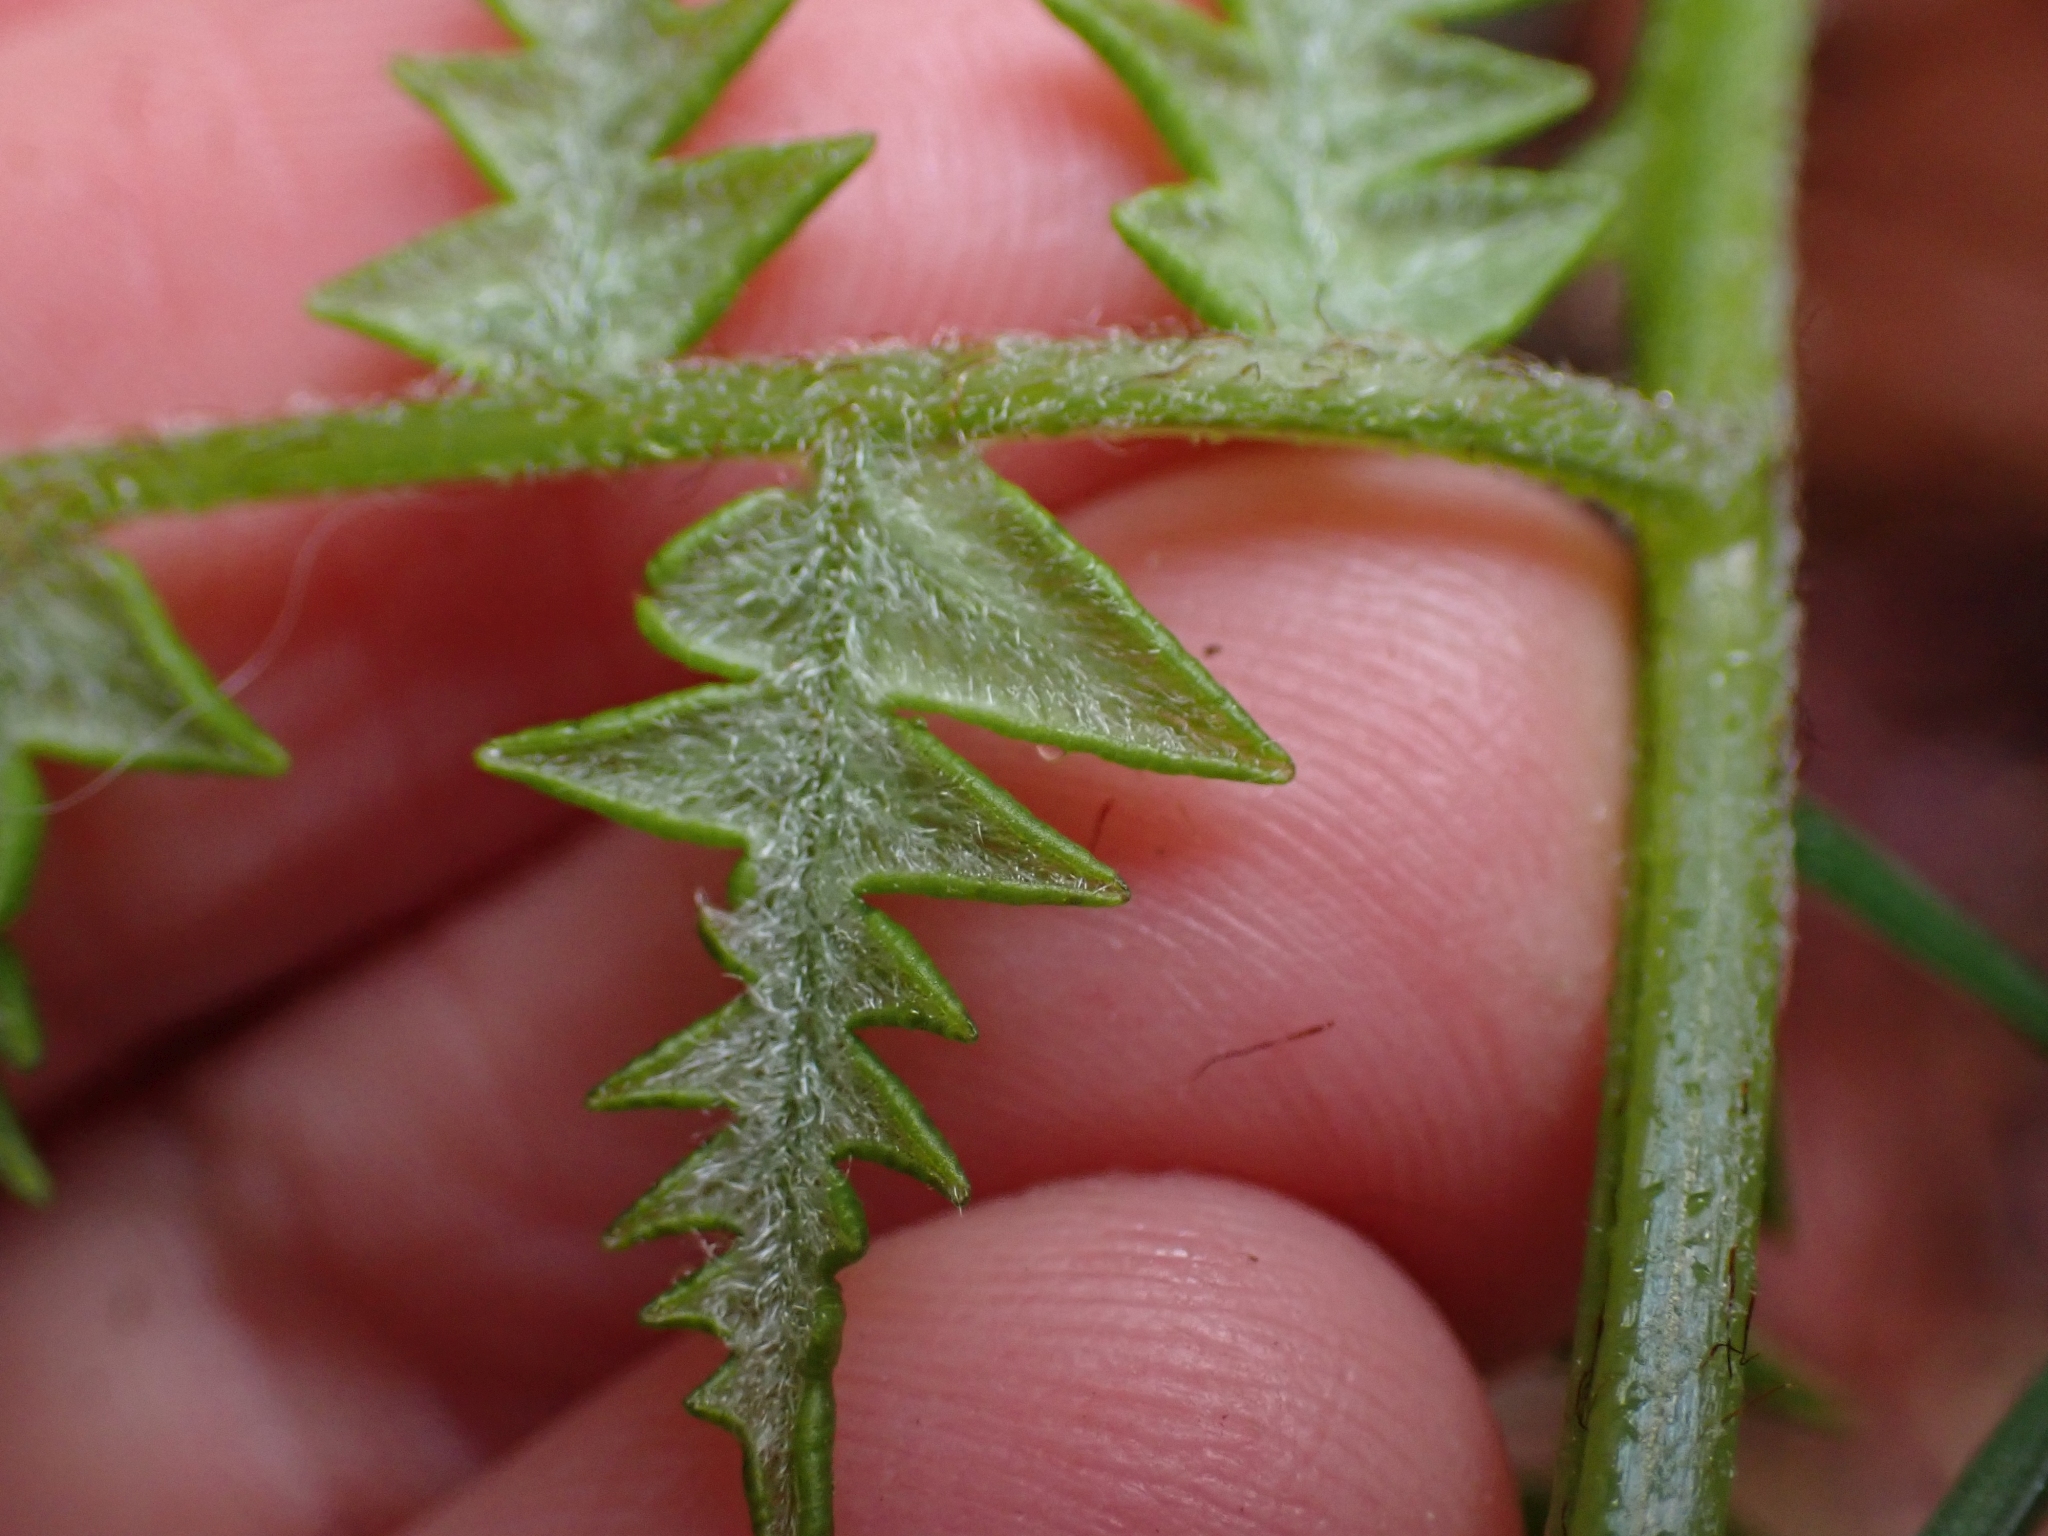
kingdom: Plantae
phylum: Tracheophyta
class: Polypodiopsida
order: Polypodiales
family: Dennstaedtiaceae
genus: Pteridium
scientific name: Pteridium aquilinum
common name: Bracken
